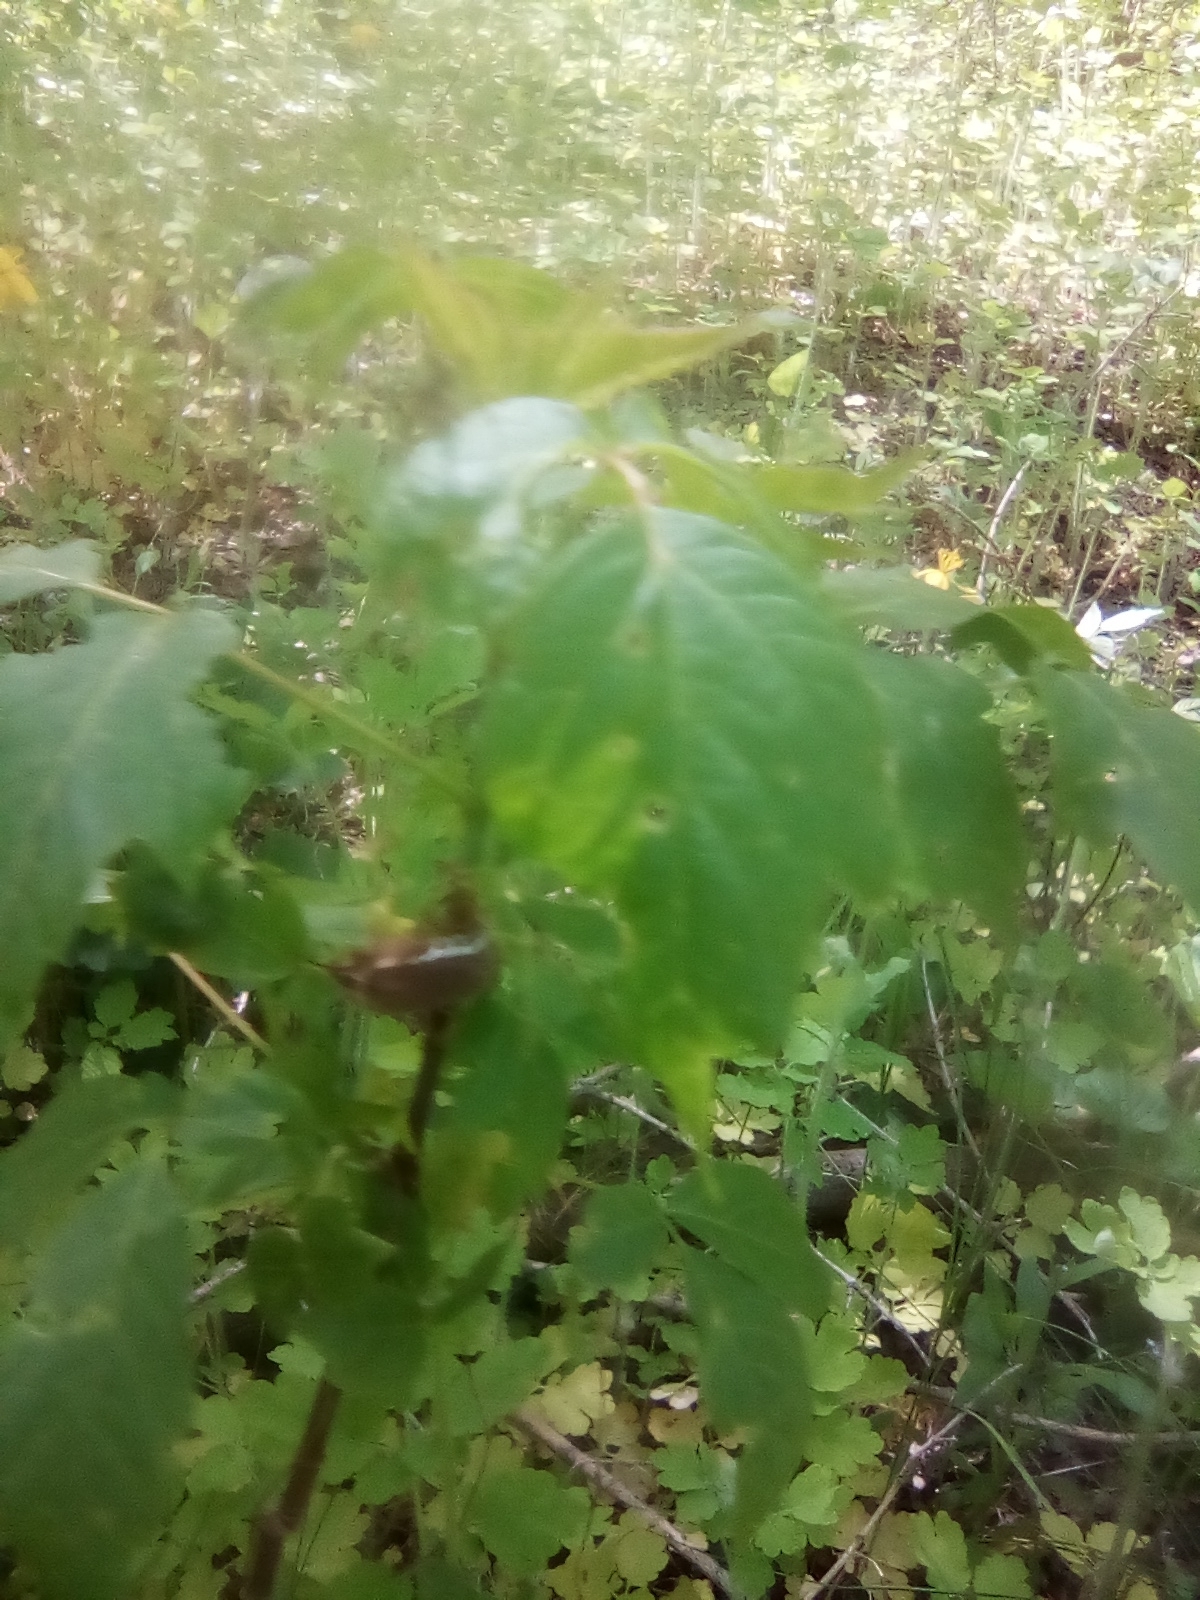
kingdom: Plantae
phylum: Tracheophyta
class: Magnoliopsida
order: Ranunculales
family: Papaveraceae
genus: Chelidonium
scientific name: Chelidonium majus
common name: Greater celandine
